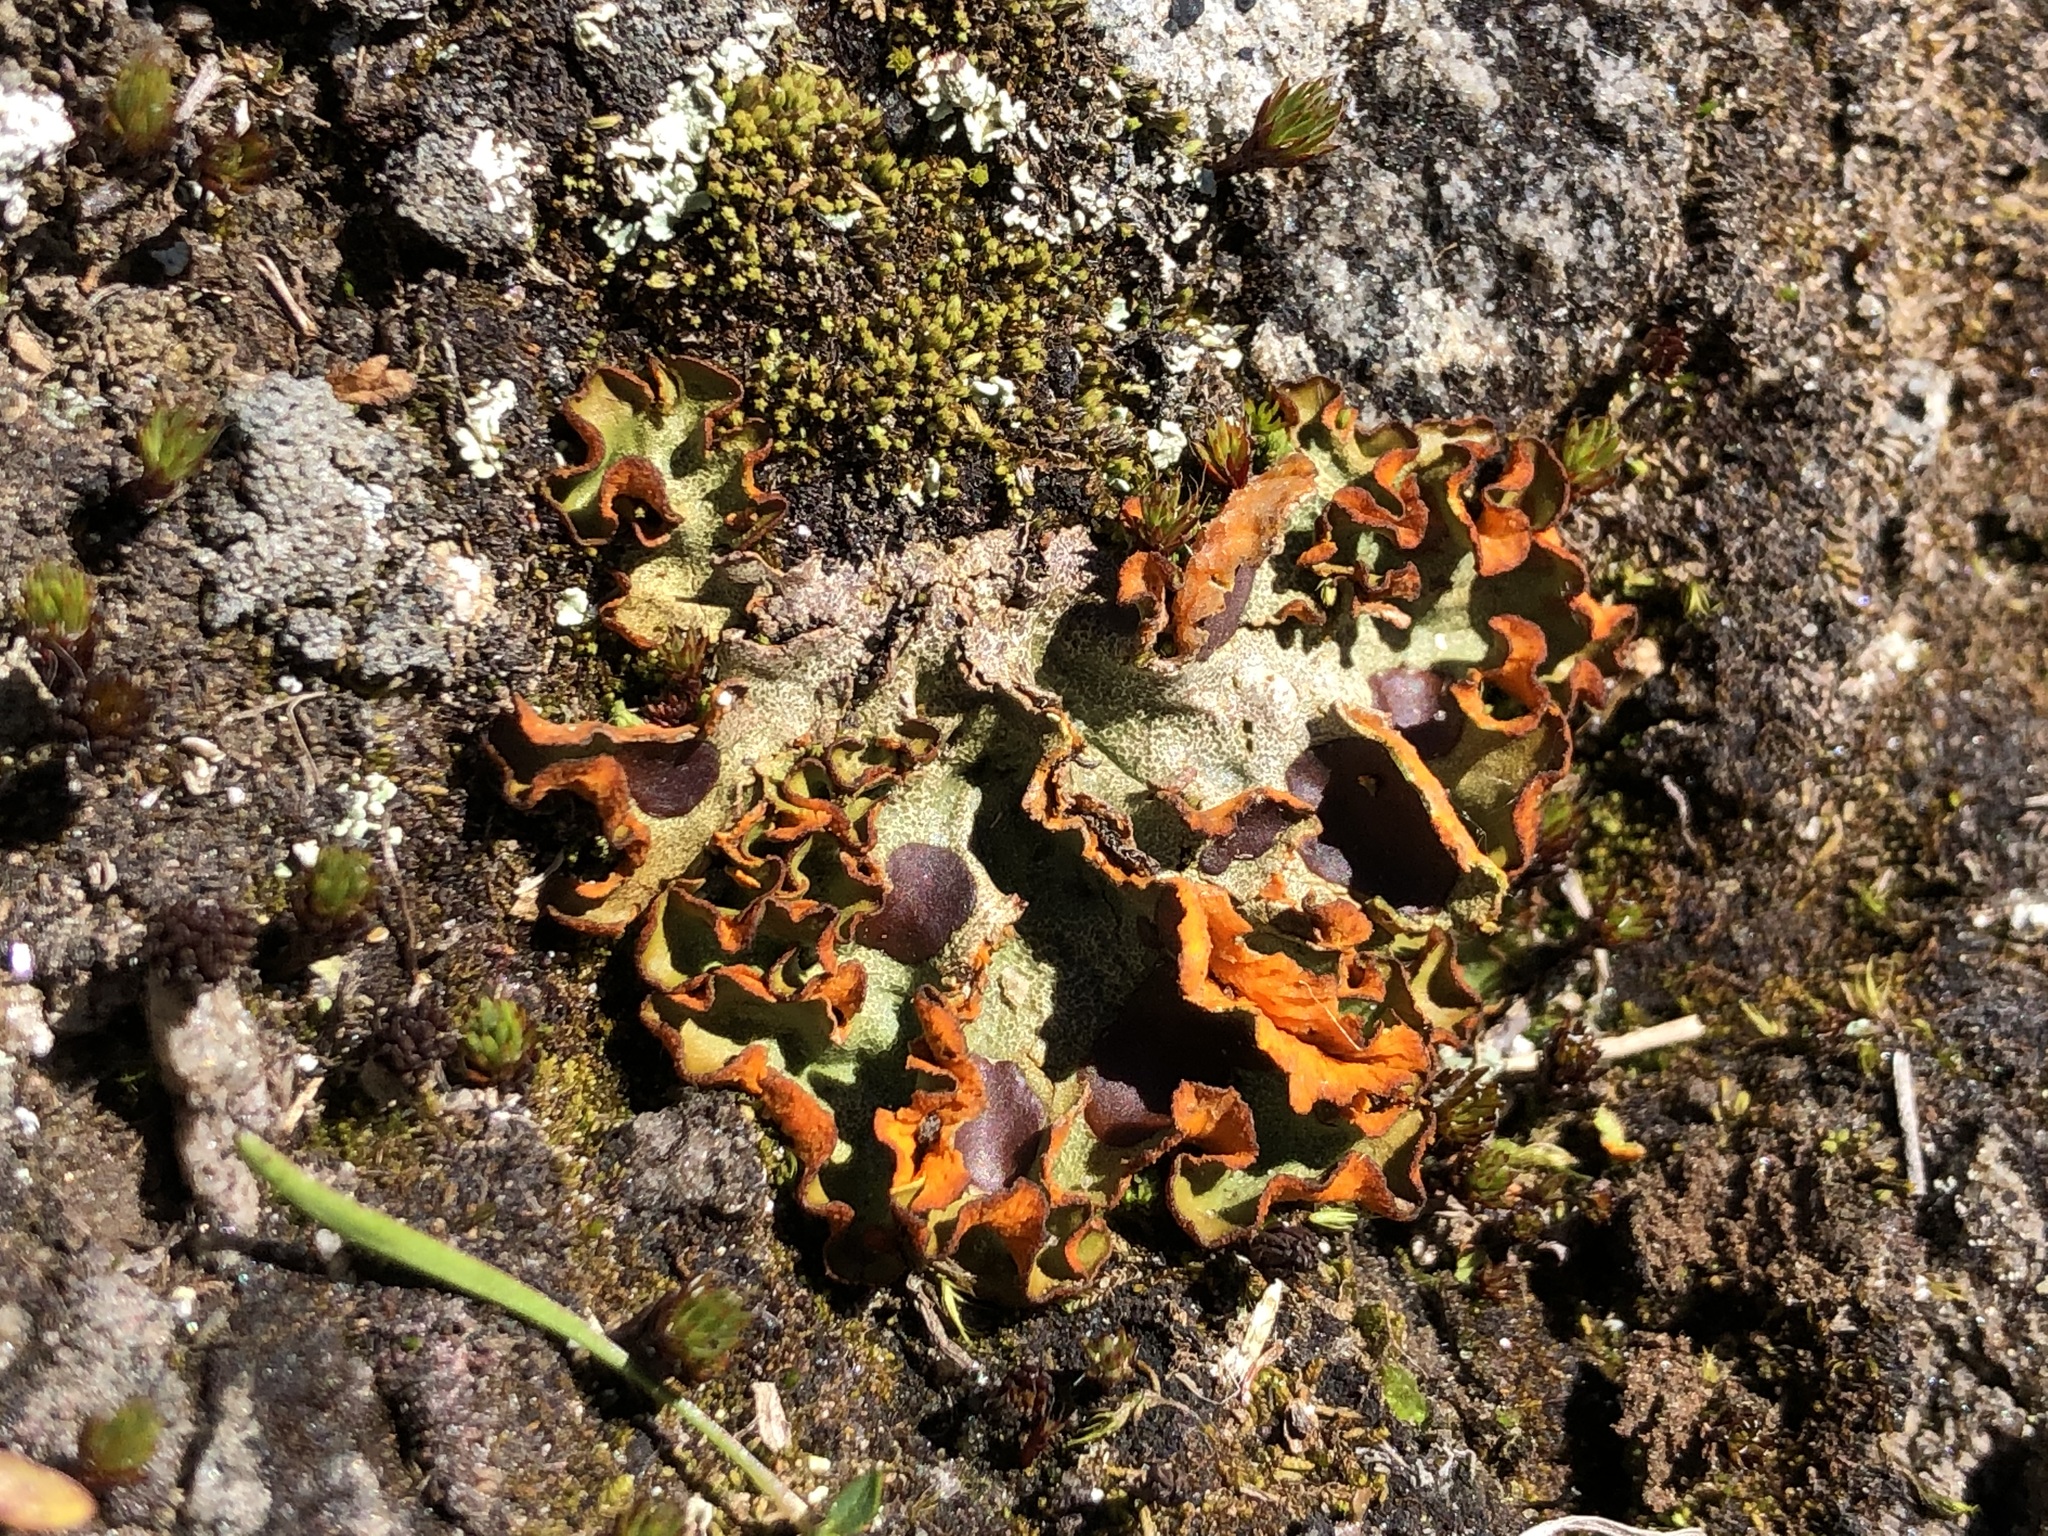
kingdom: Fungi
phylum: Ascomycota
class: Lecanoromycetes
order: Peltigerales
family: Peltigeraceae
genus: Solorina
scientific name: Solorina crocea
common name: Mountain saffron
